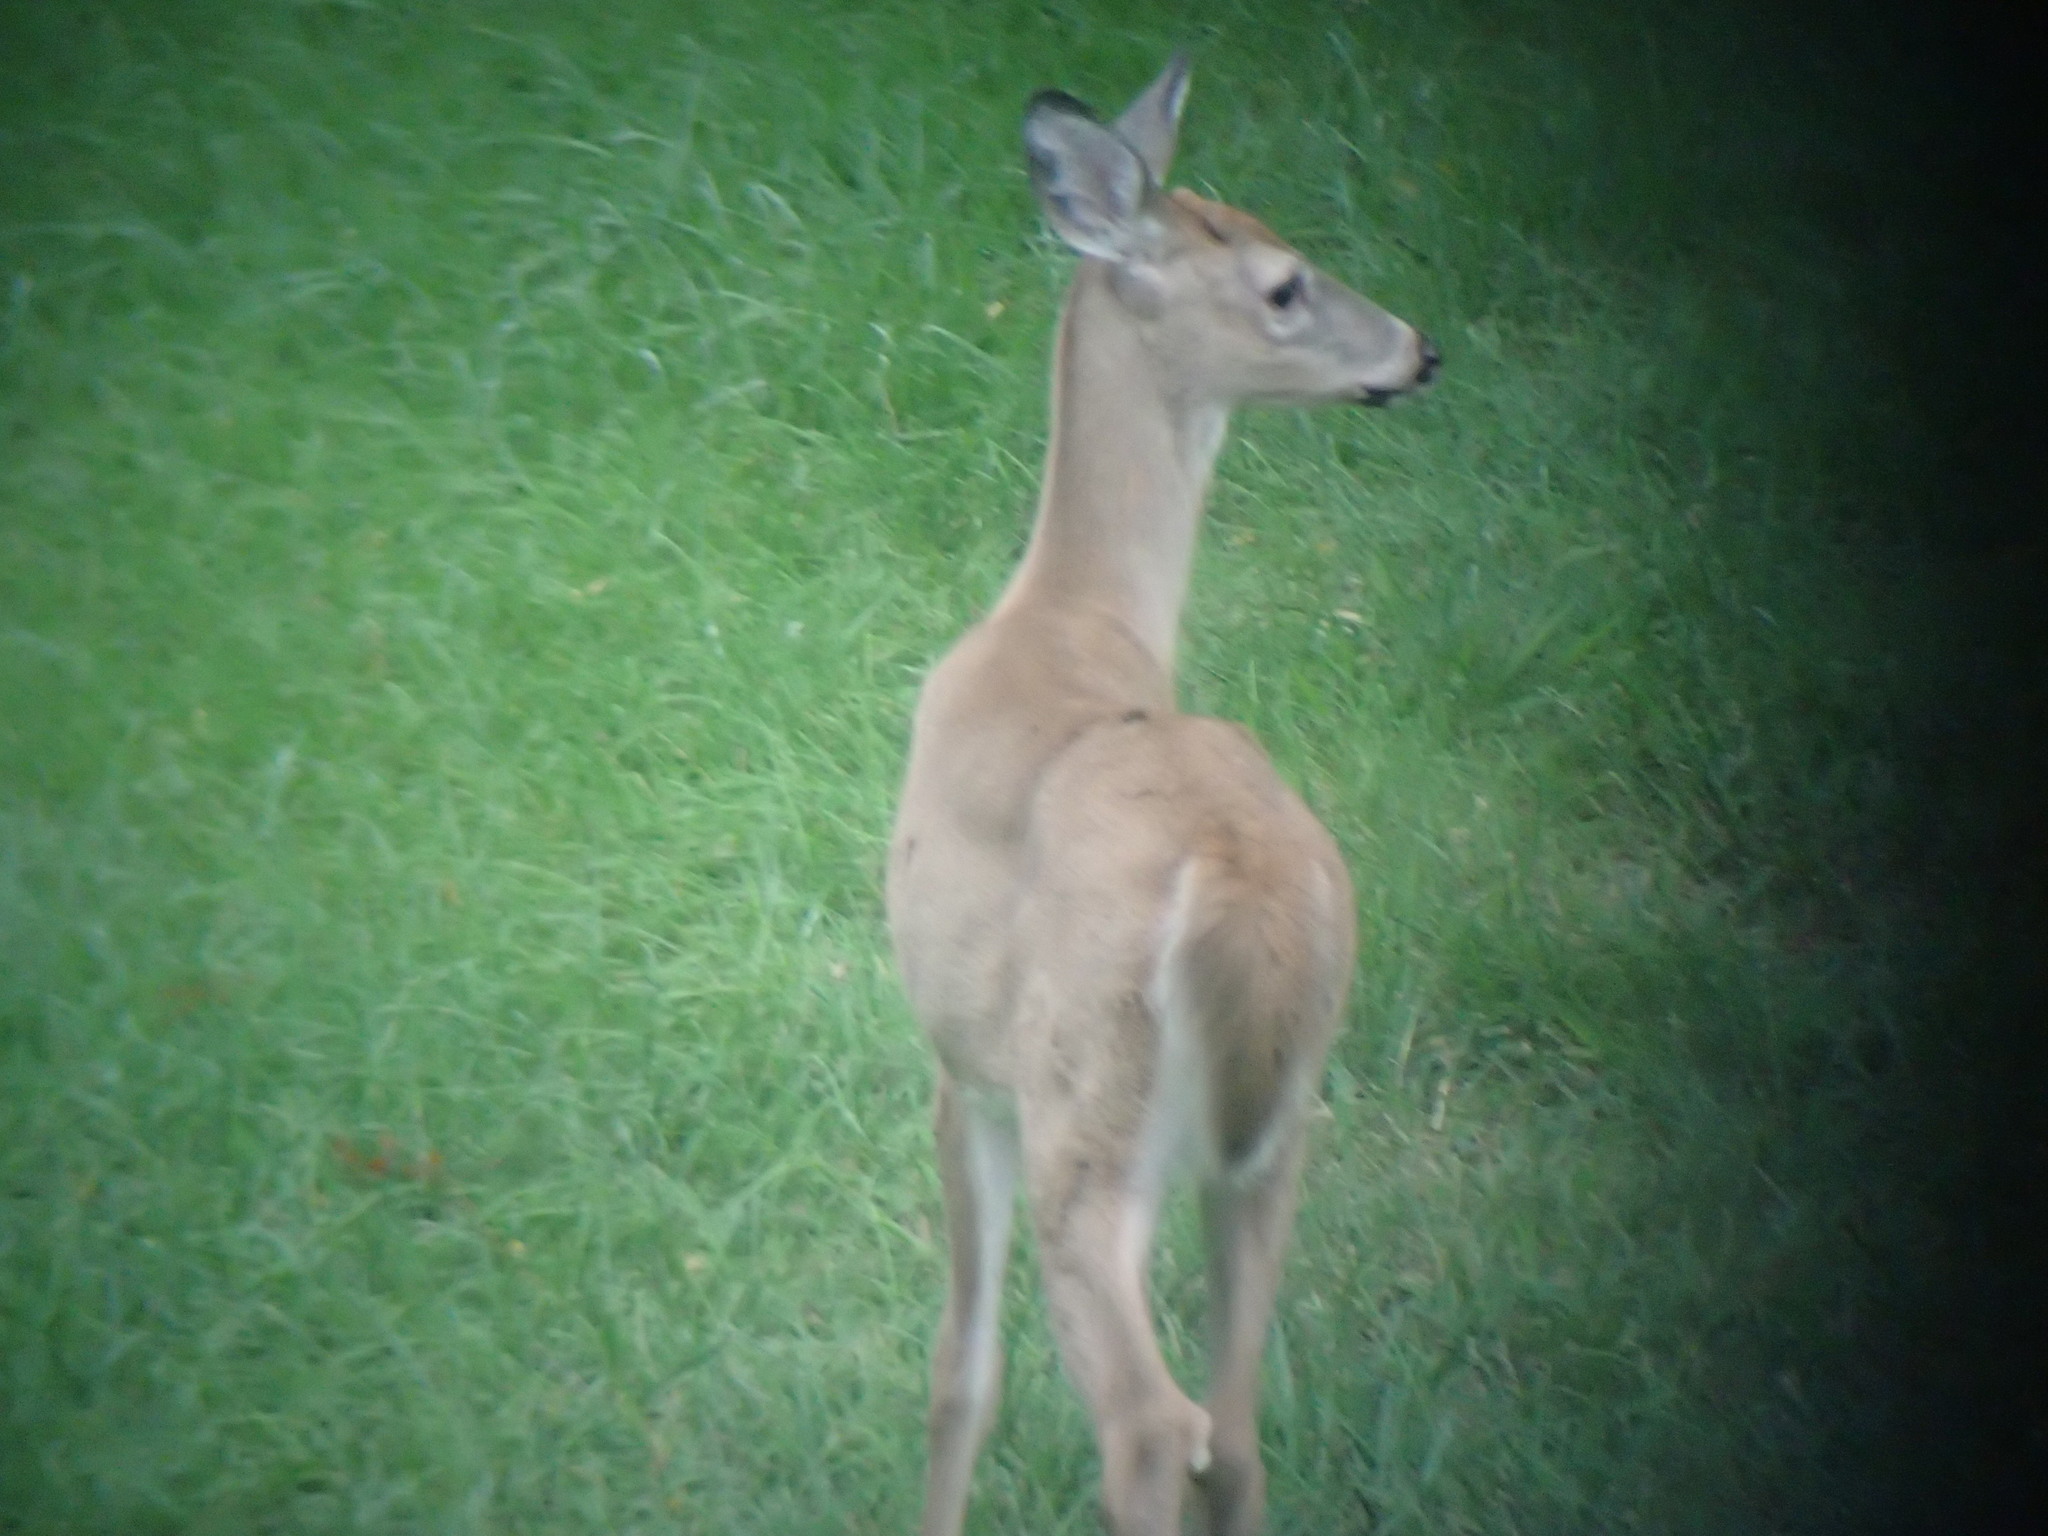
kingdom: Animalia
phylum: Chordata
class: Mammalia
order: Artiodactyla
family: Cervidae
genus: Odocoileus
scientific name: Odocoileus virginianus
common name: White-tailed deer
